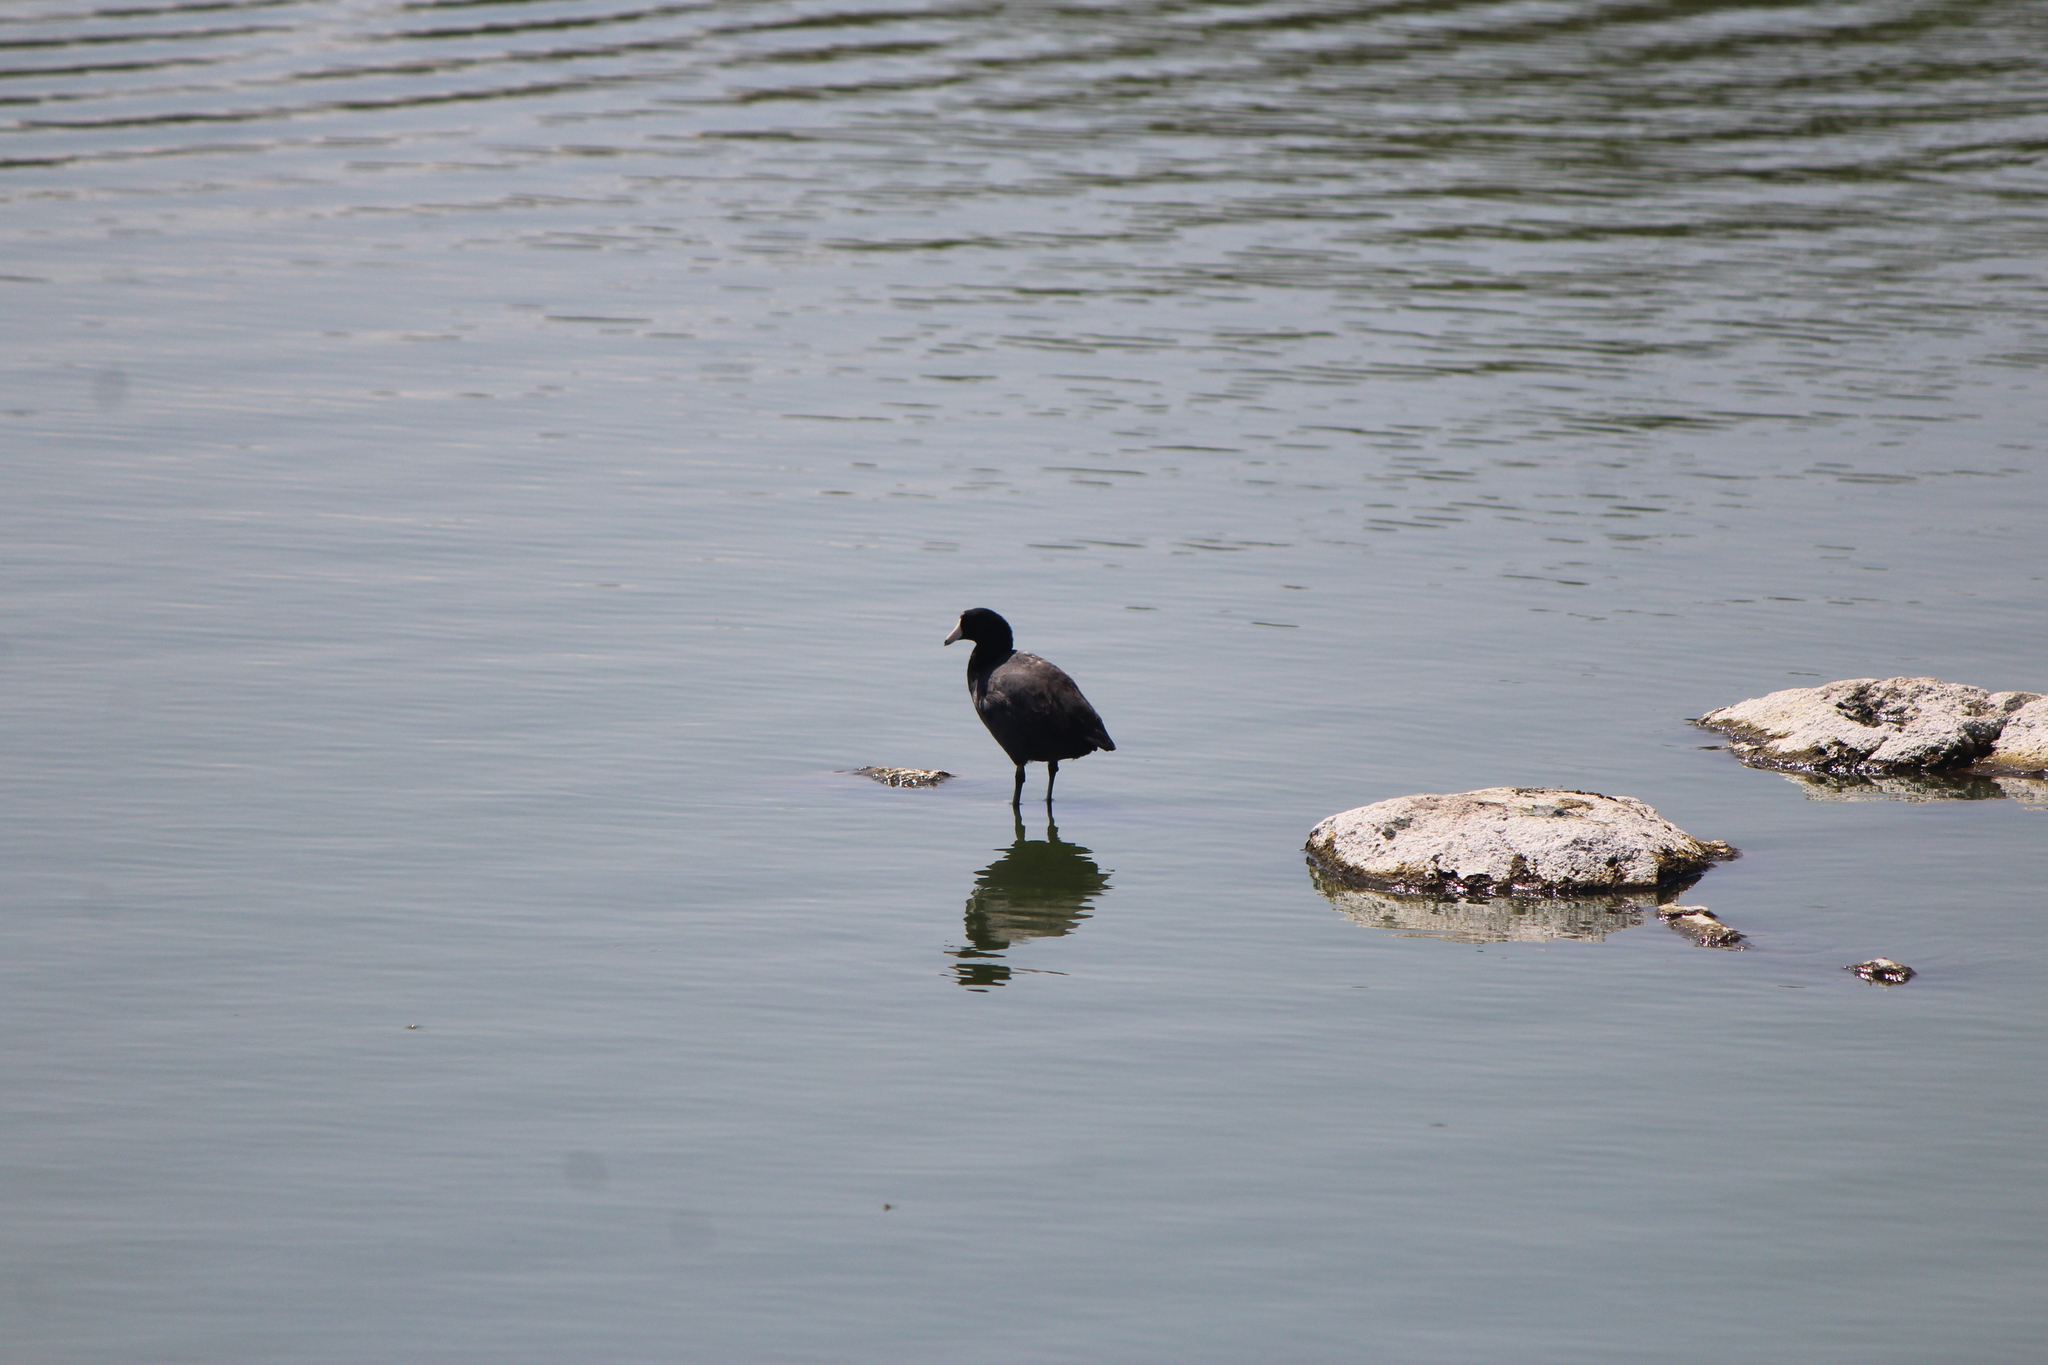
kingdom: Animalia
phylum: Chordata
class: Aves
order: Gruiformes
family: Rallidae
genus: Fulica
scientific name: Fulica americana
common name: American coot
